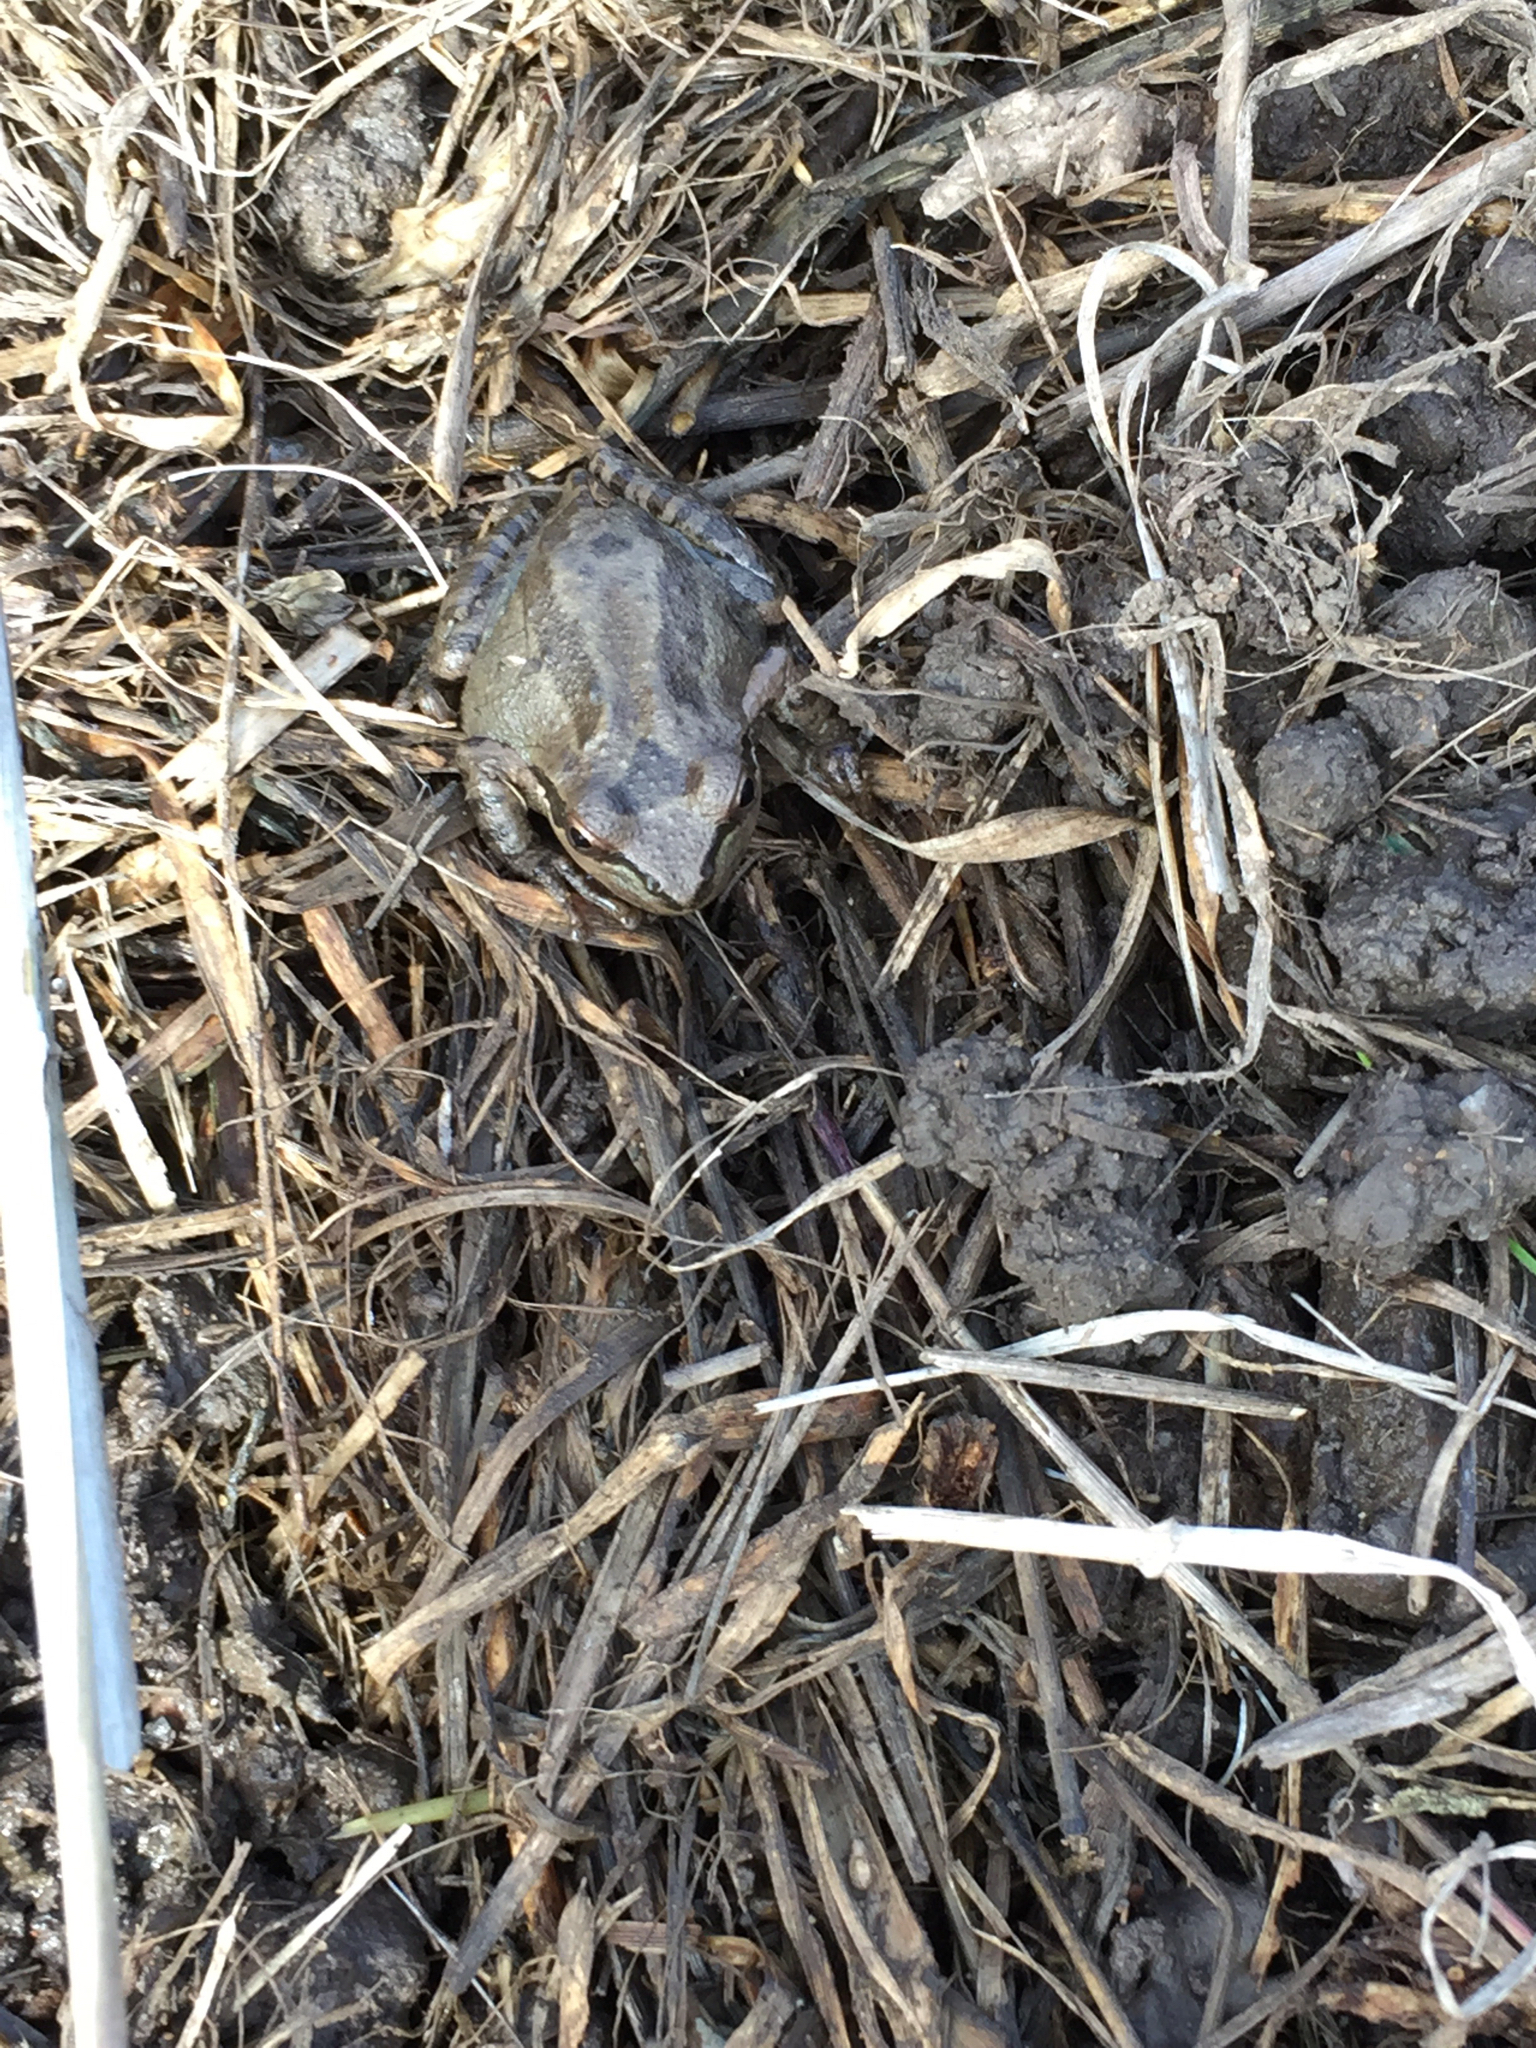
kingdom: Animalia
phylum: Chordata
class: Amphibia
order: Anura
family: Hylidae
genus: Pseudacris
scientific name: Pseudacris regilla
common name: Pacific chorus frog
